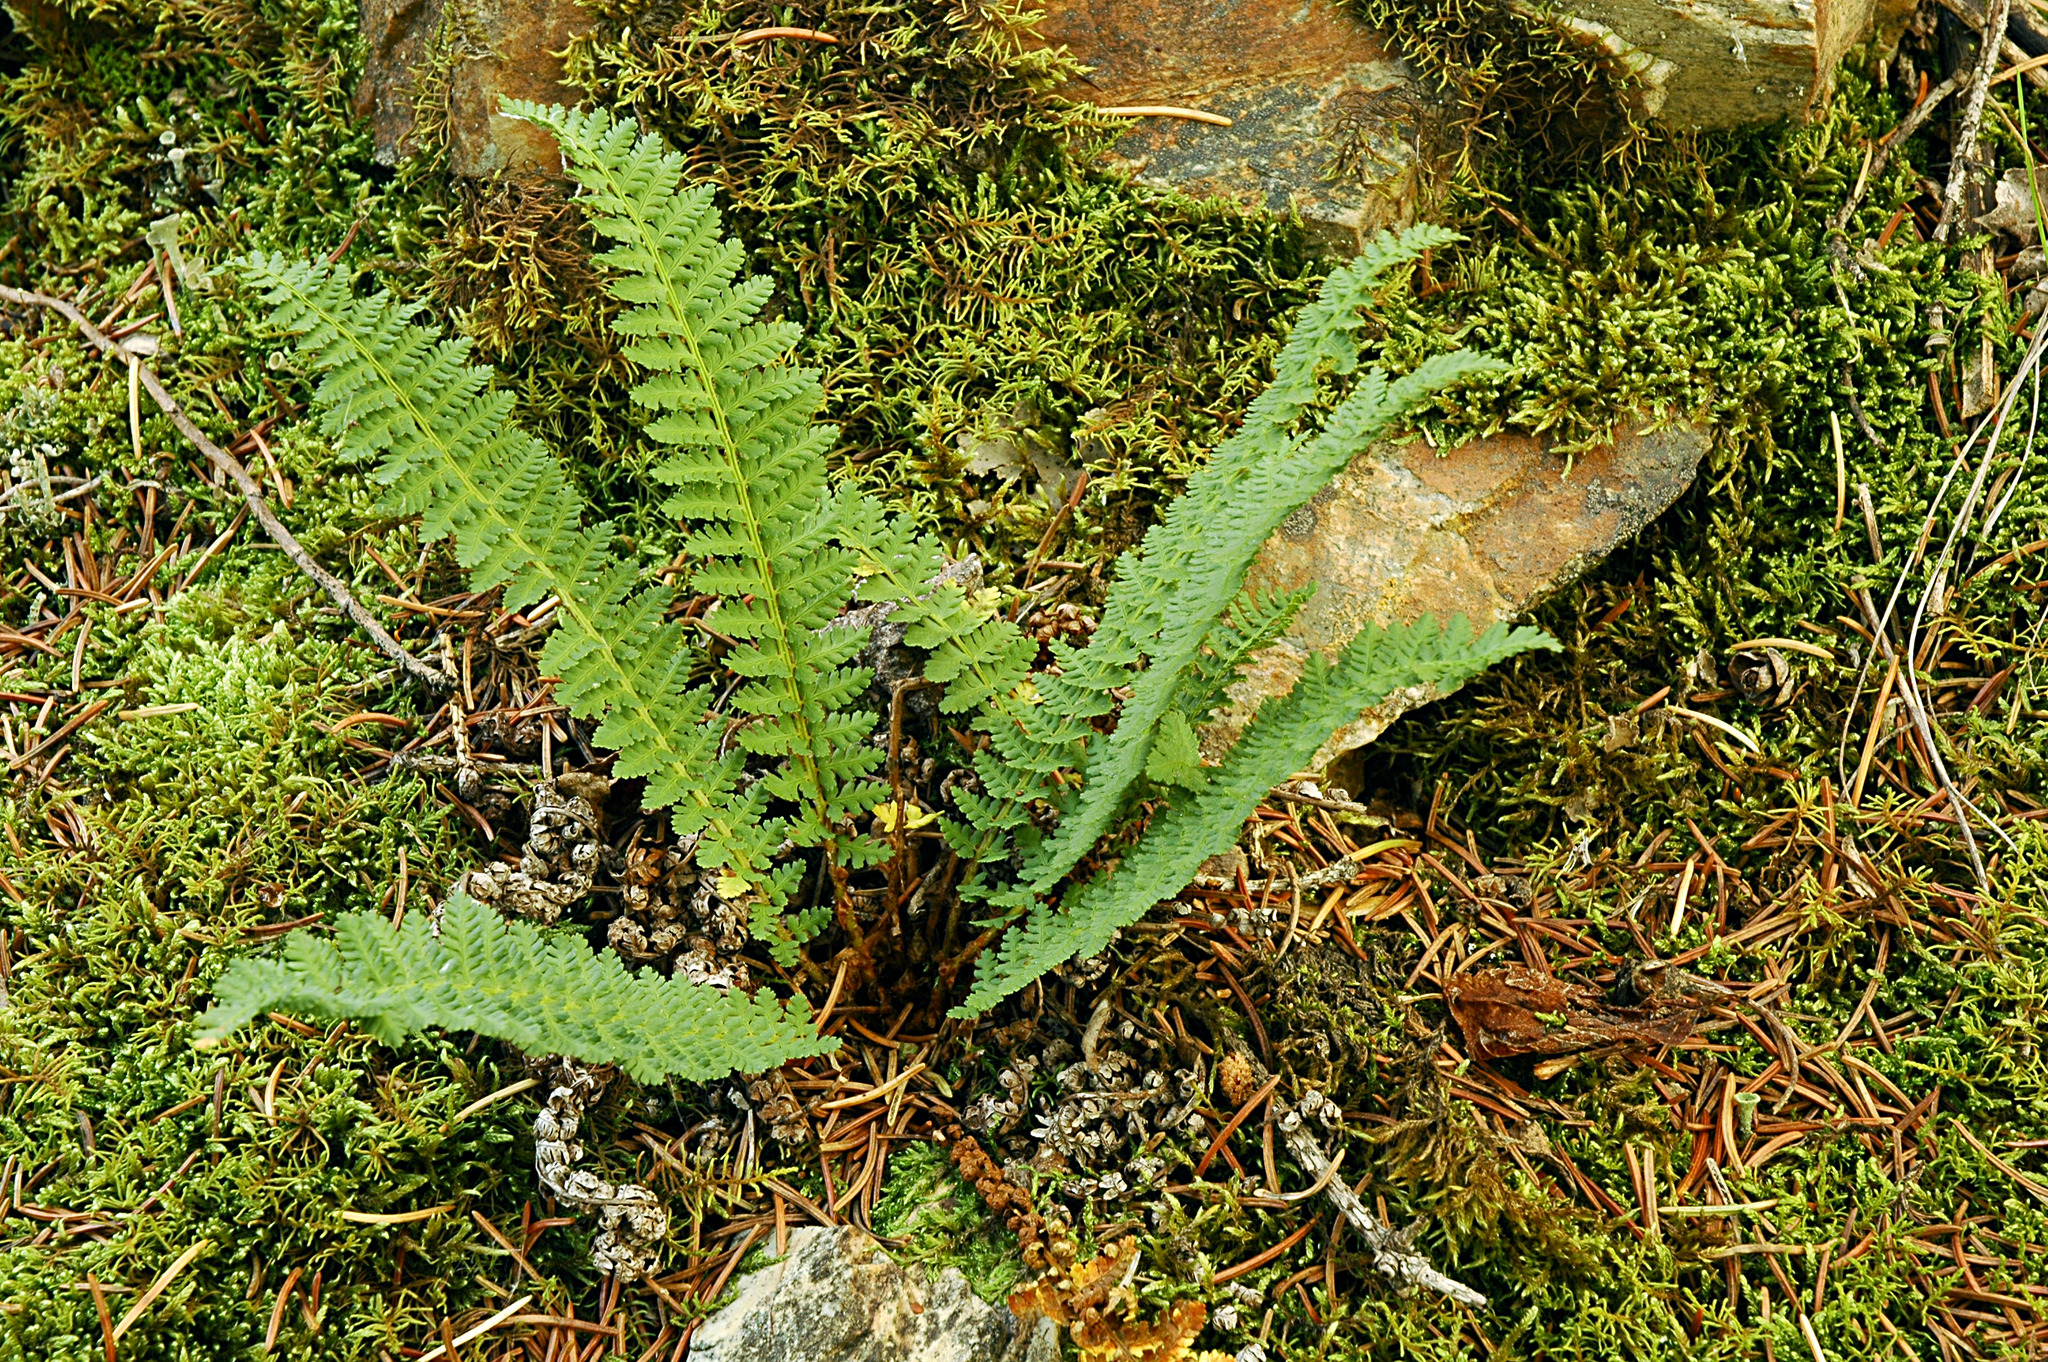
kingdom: Plantae
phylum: Tracheophyta
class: Polypodiopsida
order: Polypodiales
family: Dryopteridaceae
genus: Dryopteris
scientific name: Dryopteris fragrans
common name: Fragrant wood fern
